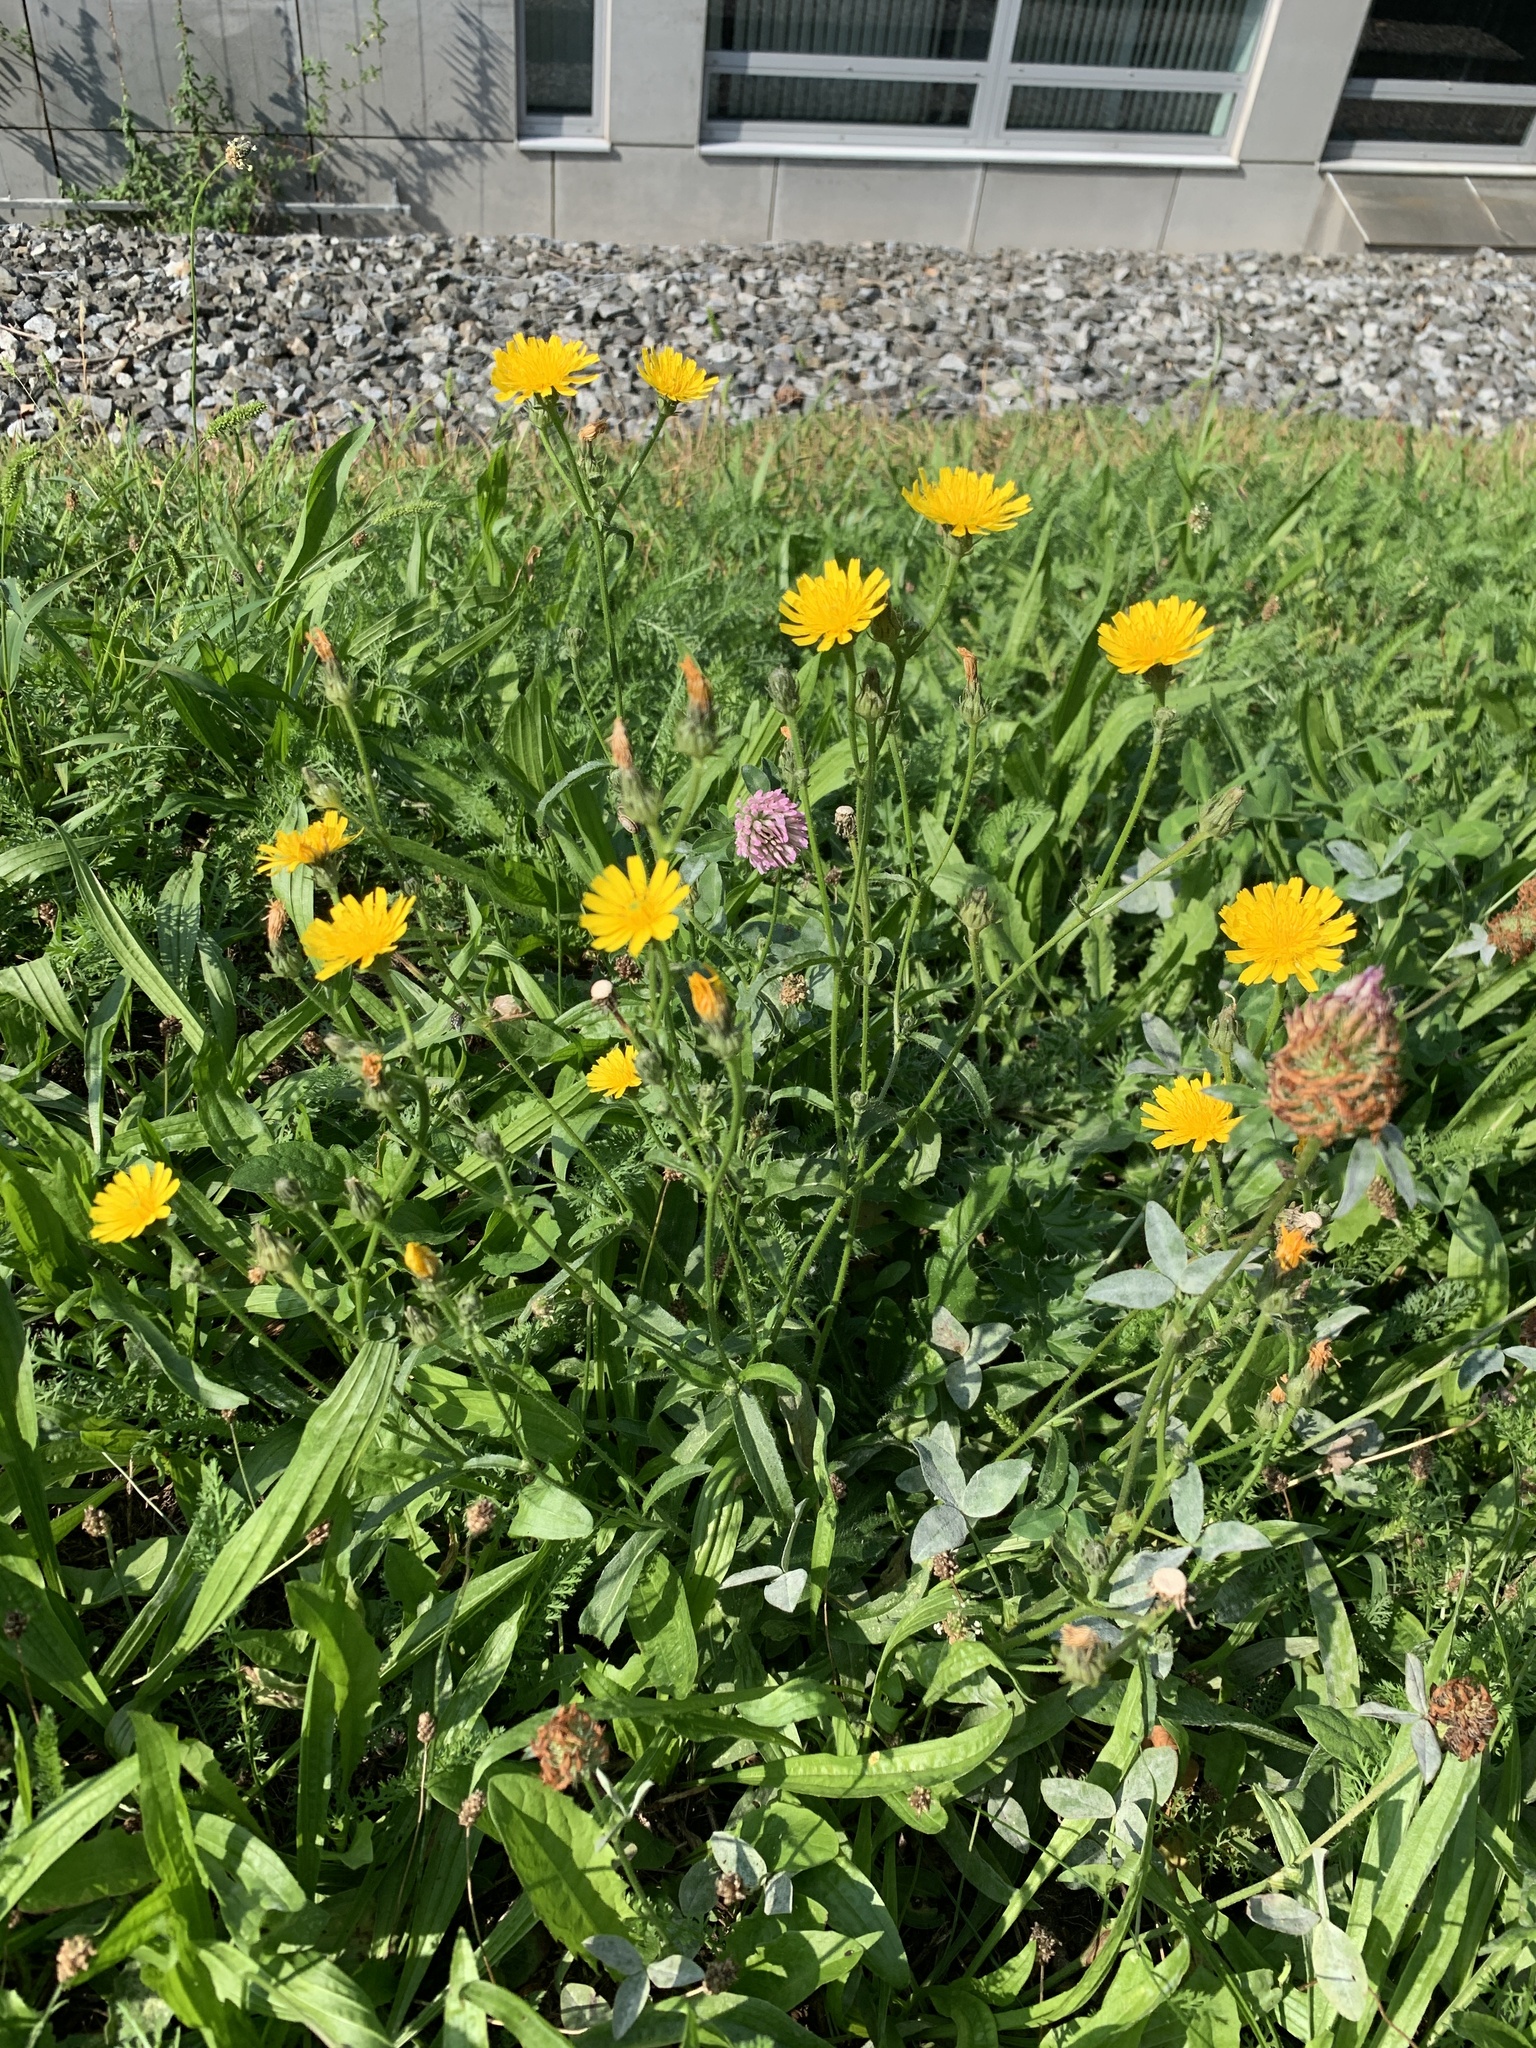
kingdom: Plantae
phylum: Tracheophyta
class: Magnoliopsida
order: Asterales
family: Asteraceae
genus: Picris
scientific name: Picris hieracioides
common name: Hawkweed oxtongue
